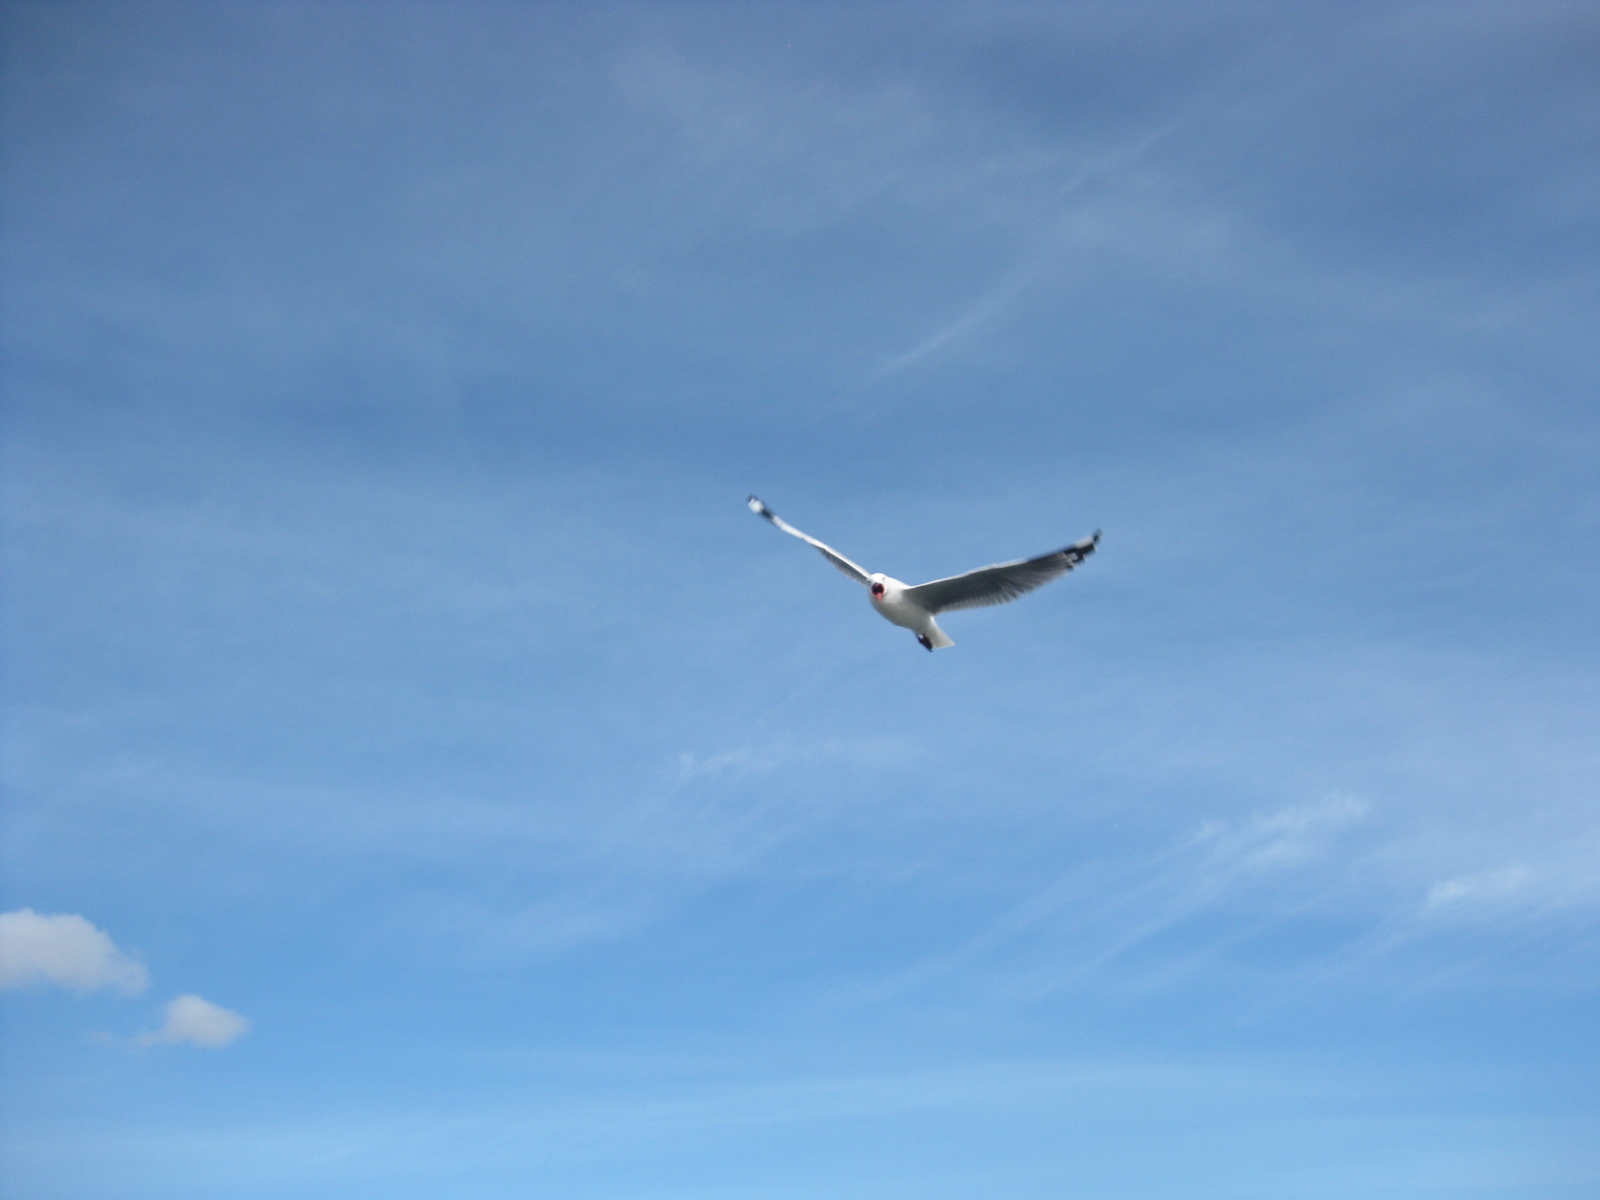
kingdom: Animalia
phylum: Chordata
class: Aves
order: Charadriiformes
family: Laridae
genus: Chroicocephalus
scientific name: Chroicocephalus novaehollandiae
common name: Silver gull
